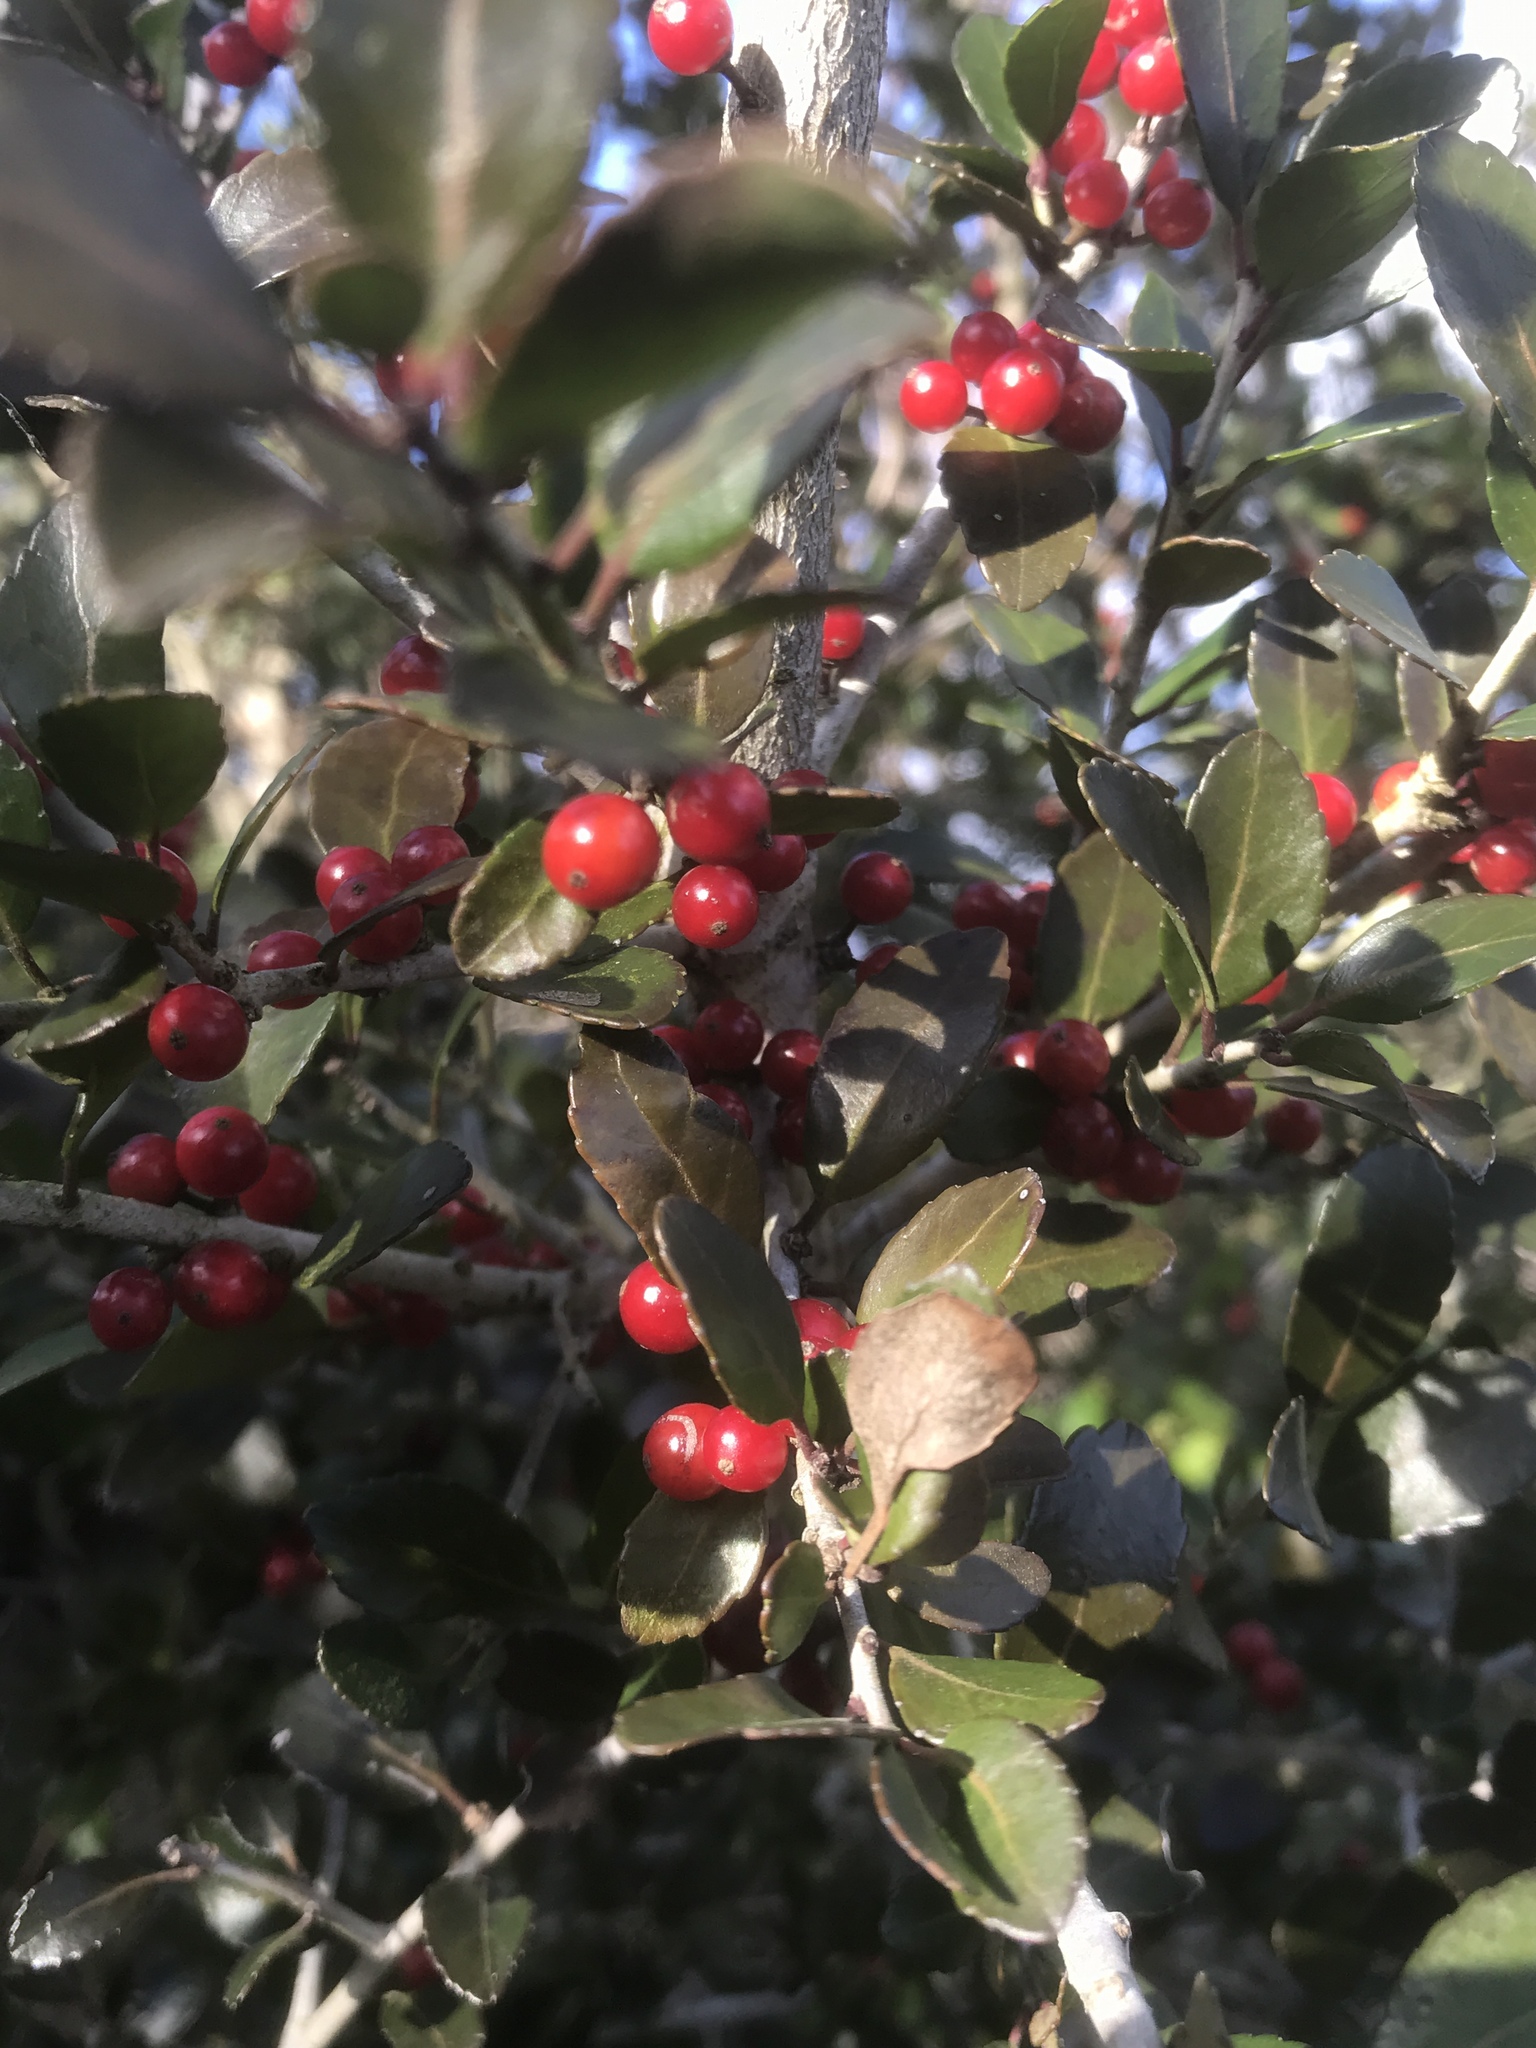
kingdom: Plantae
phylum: Tracheophyta
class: Magnoliopsida
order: Aquifoliales
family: Aquifoliaceae
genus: Ilex
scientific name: Ilex vomitoria
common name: Yaupon holly
